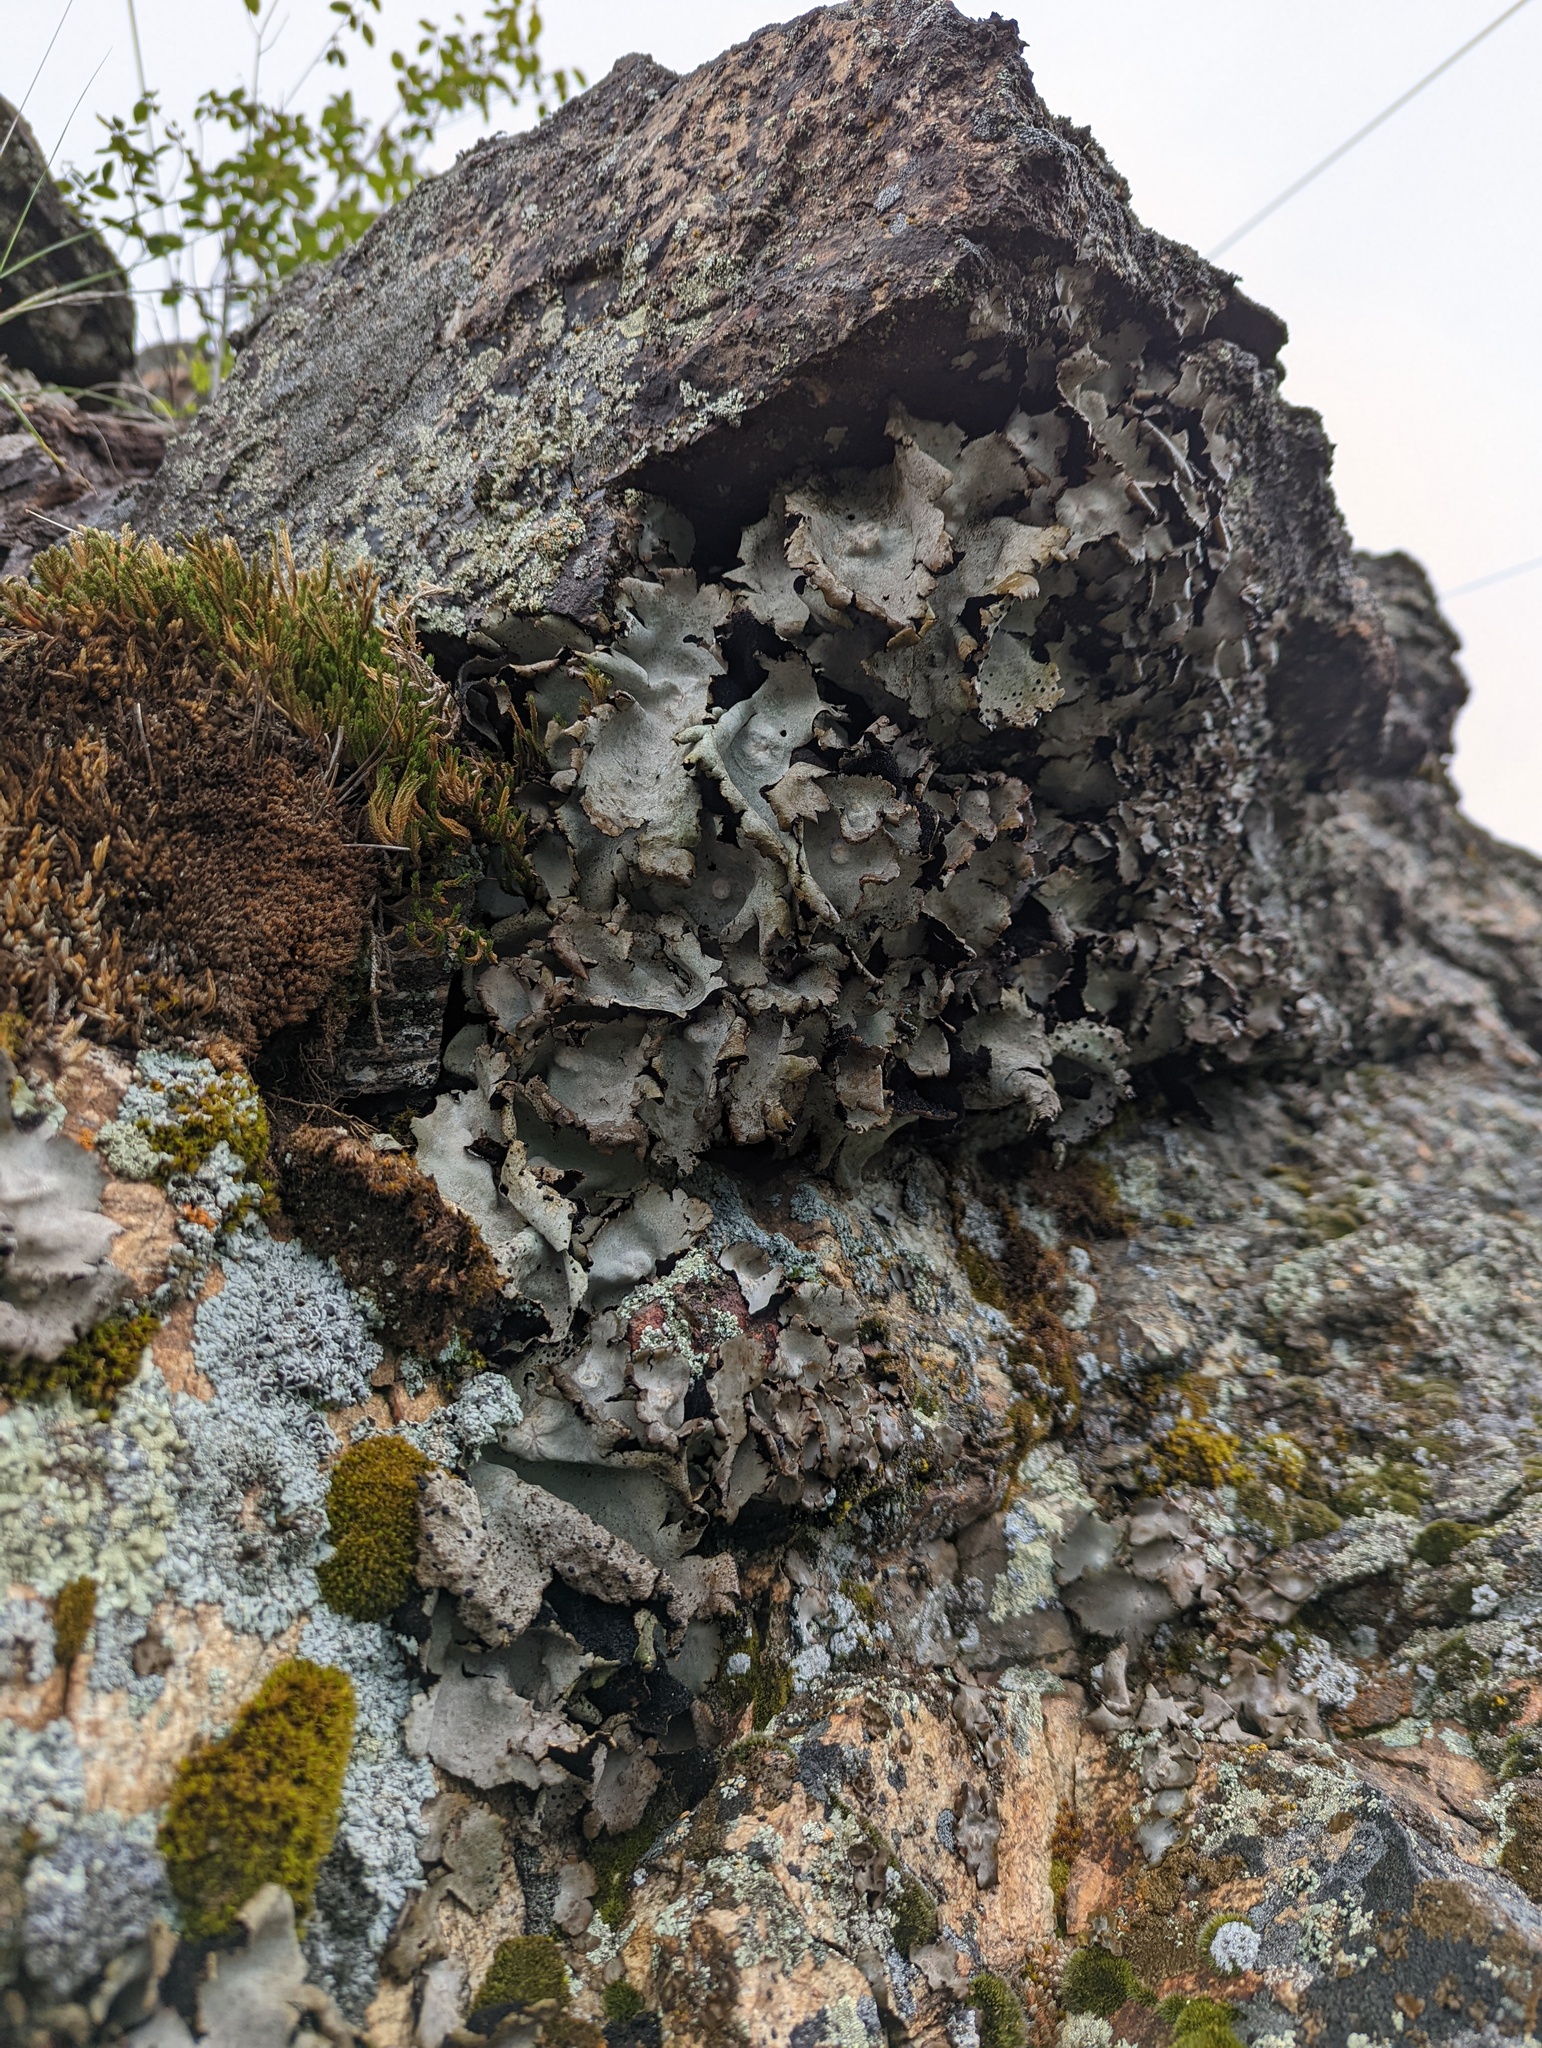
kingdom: Fungi
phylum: Ascomycota
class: Lecanoromycetes
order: Umbilicariales
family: Umbilicariaceae
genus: Umbilicaria
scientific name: Umbilicaria americana
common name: Frosted rock tripe
